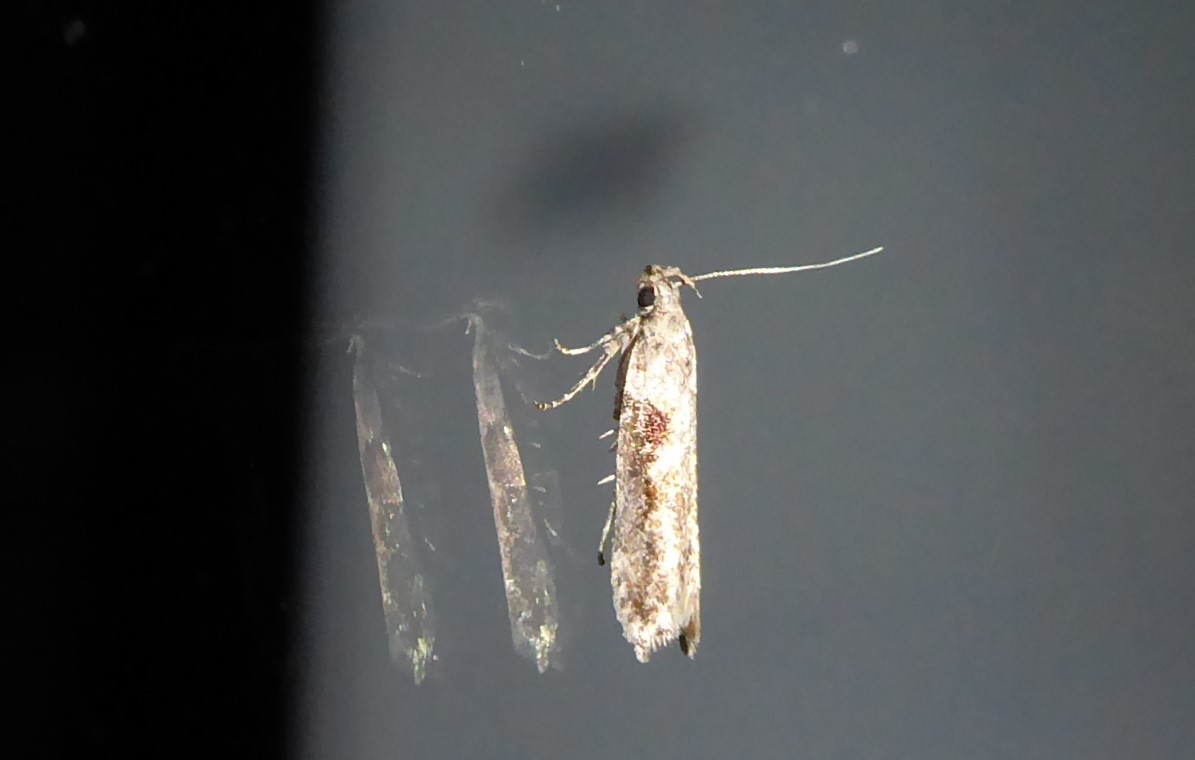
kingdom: Animalia
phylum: Arthropoda
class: Insecta
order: Lepidoptera
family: Gelechiidae
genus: Symmetrischema
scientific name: Symmetrischema tangolias
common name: Moth
